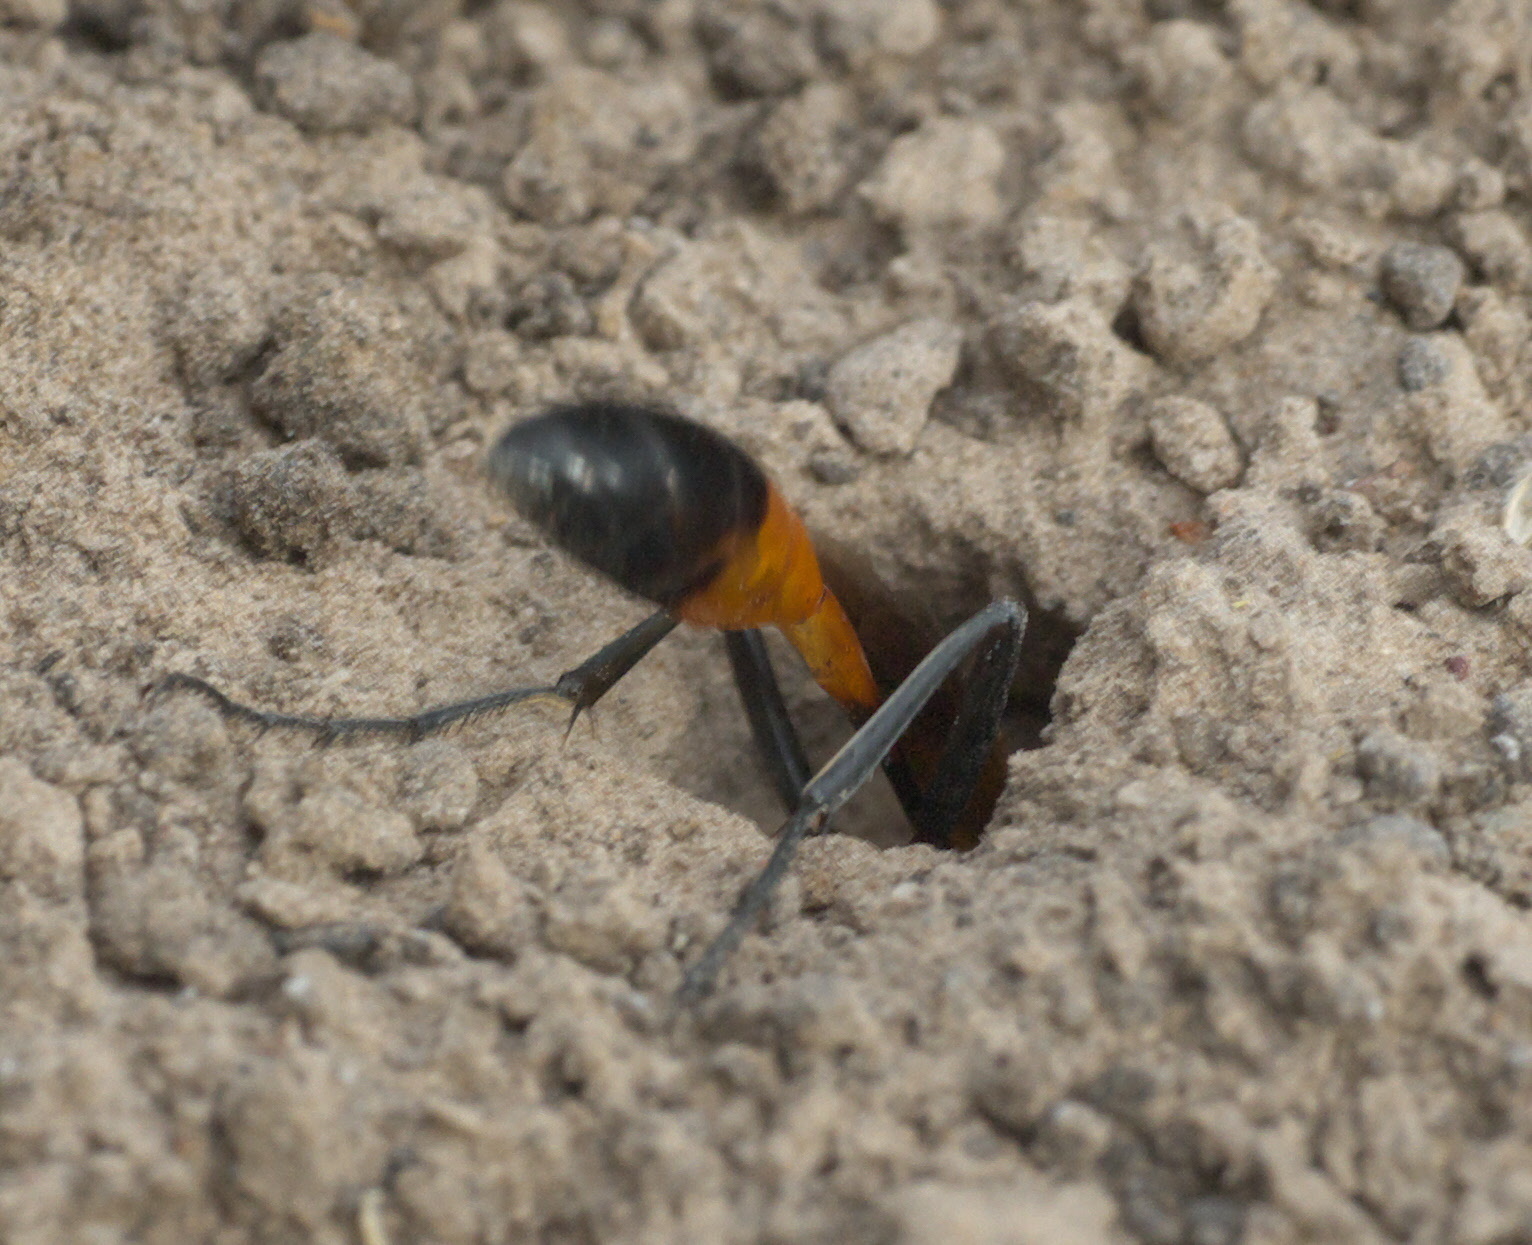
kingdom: Animalia
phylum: Arthropoda
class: Insecta
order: Hymenoptera
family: Sphecidae
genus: Ammophila
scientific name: Ammophila
